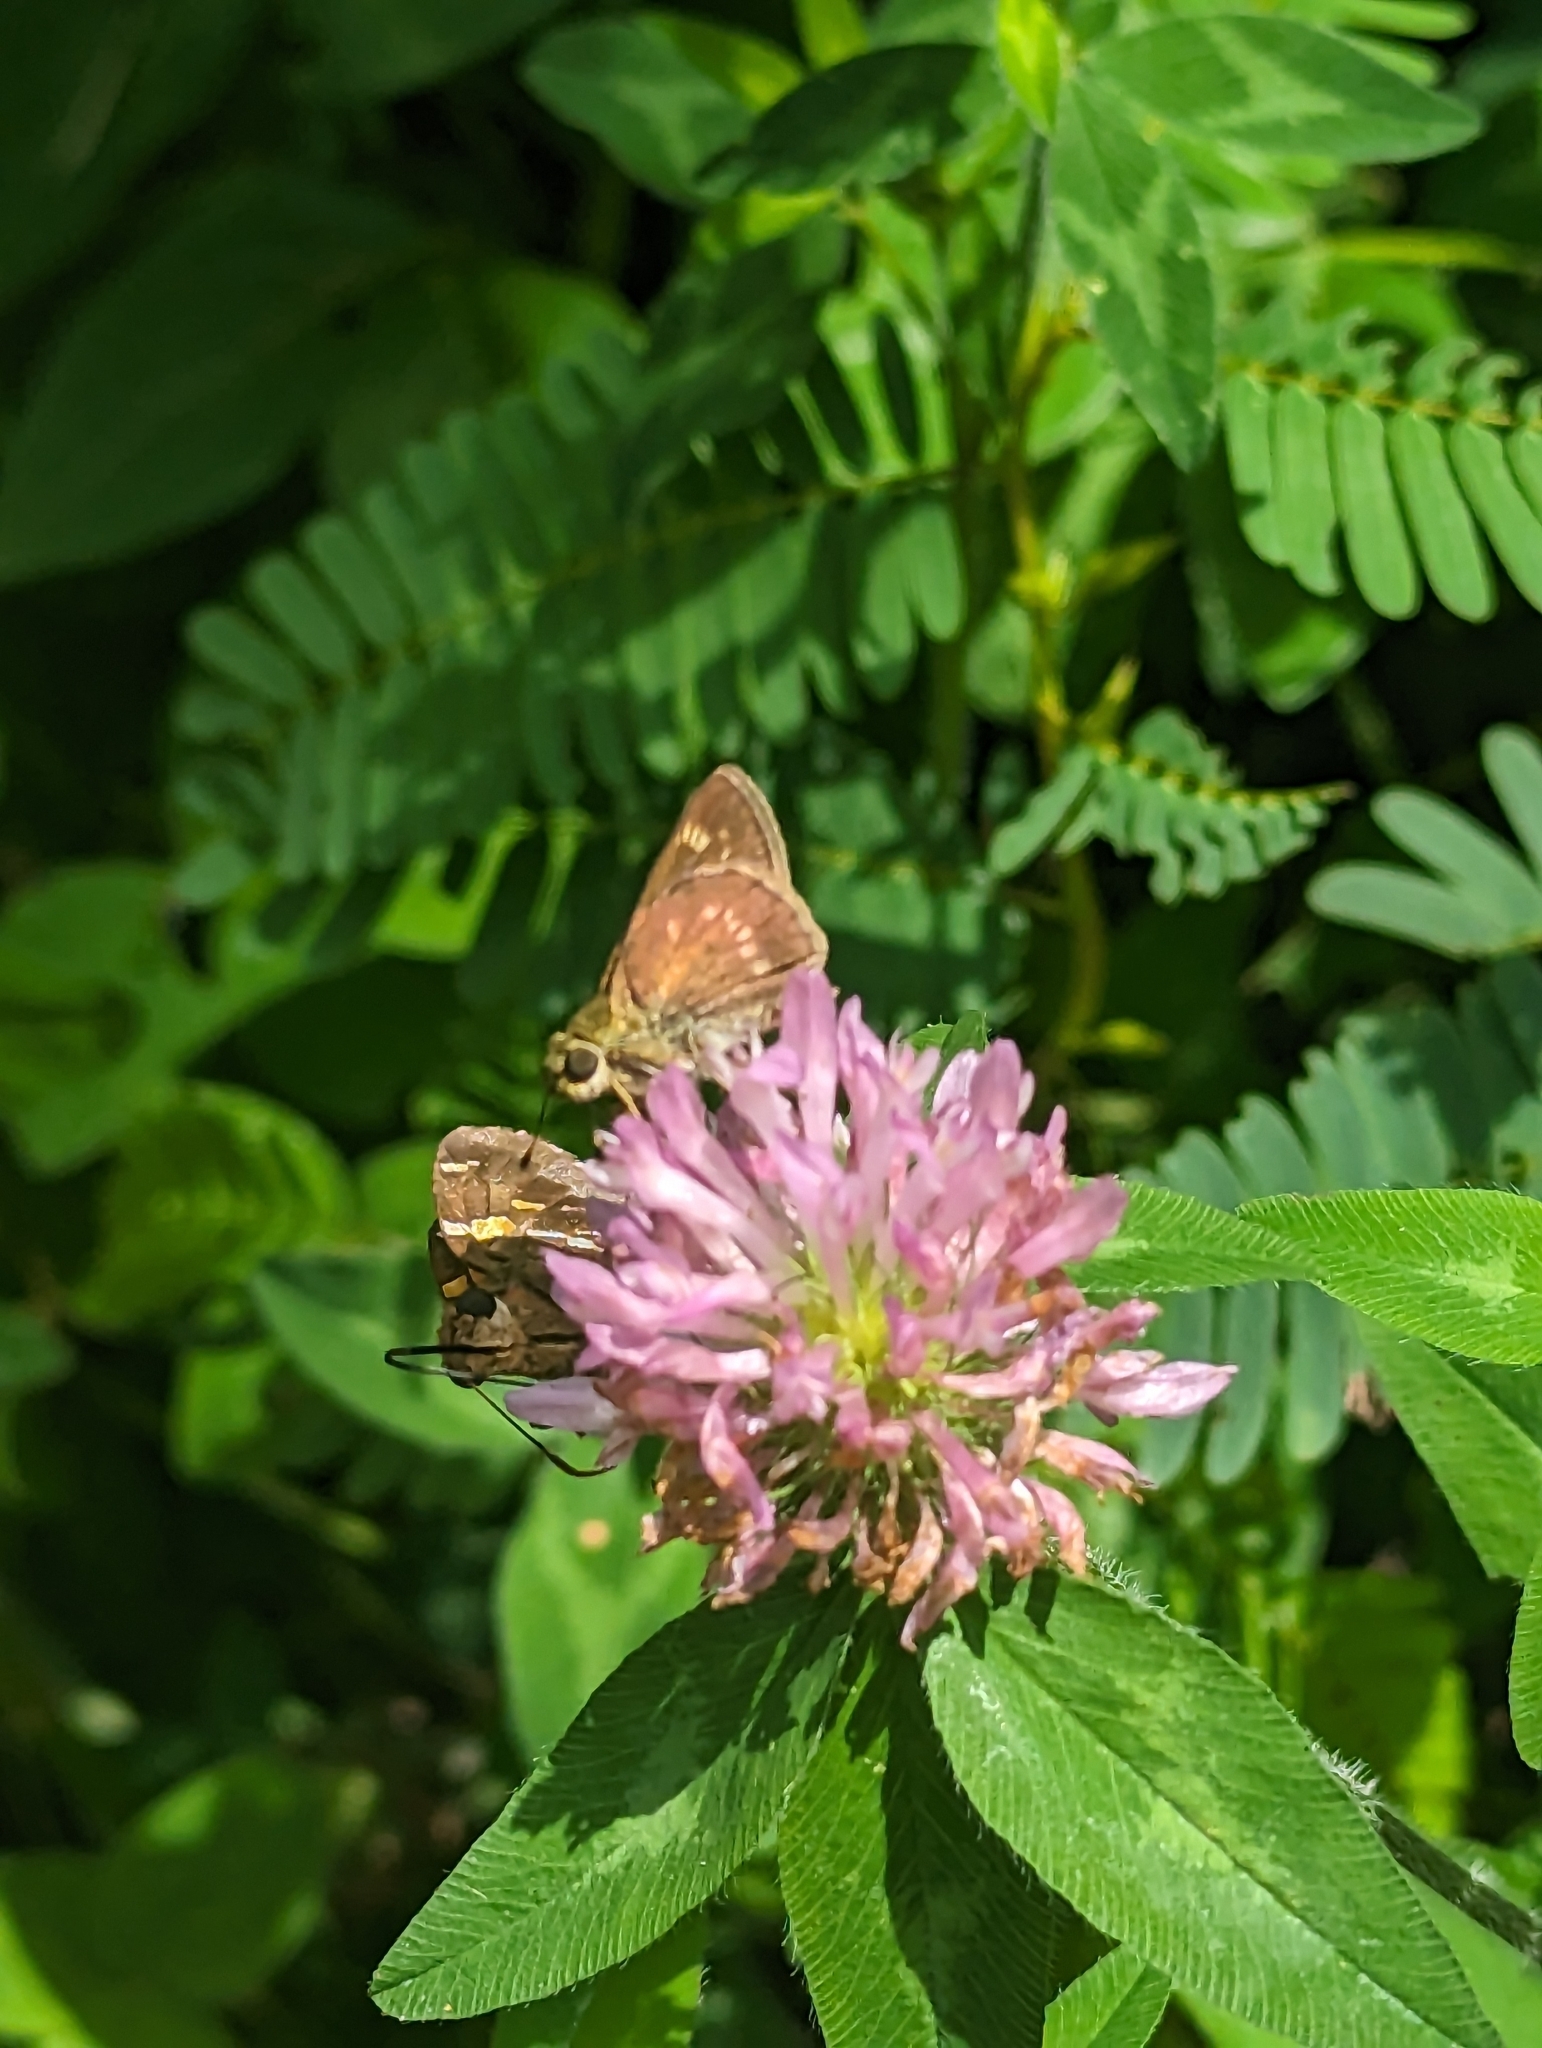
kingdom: Animalia
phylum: Arthropoda
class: Insecta
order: Lepidoptera
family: Hesperiidae
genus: Vernia
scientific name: Vernia verna
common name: Little glassywing
